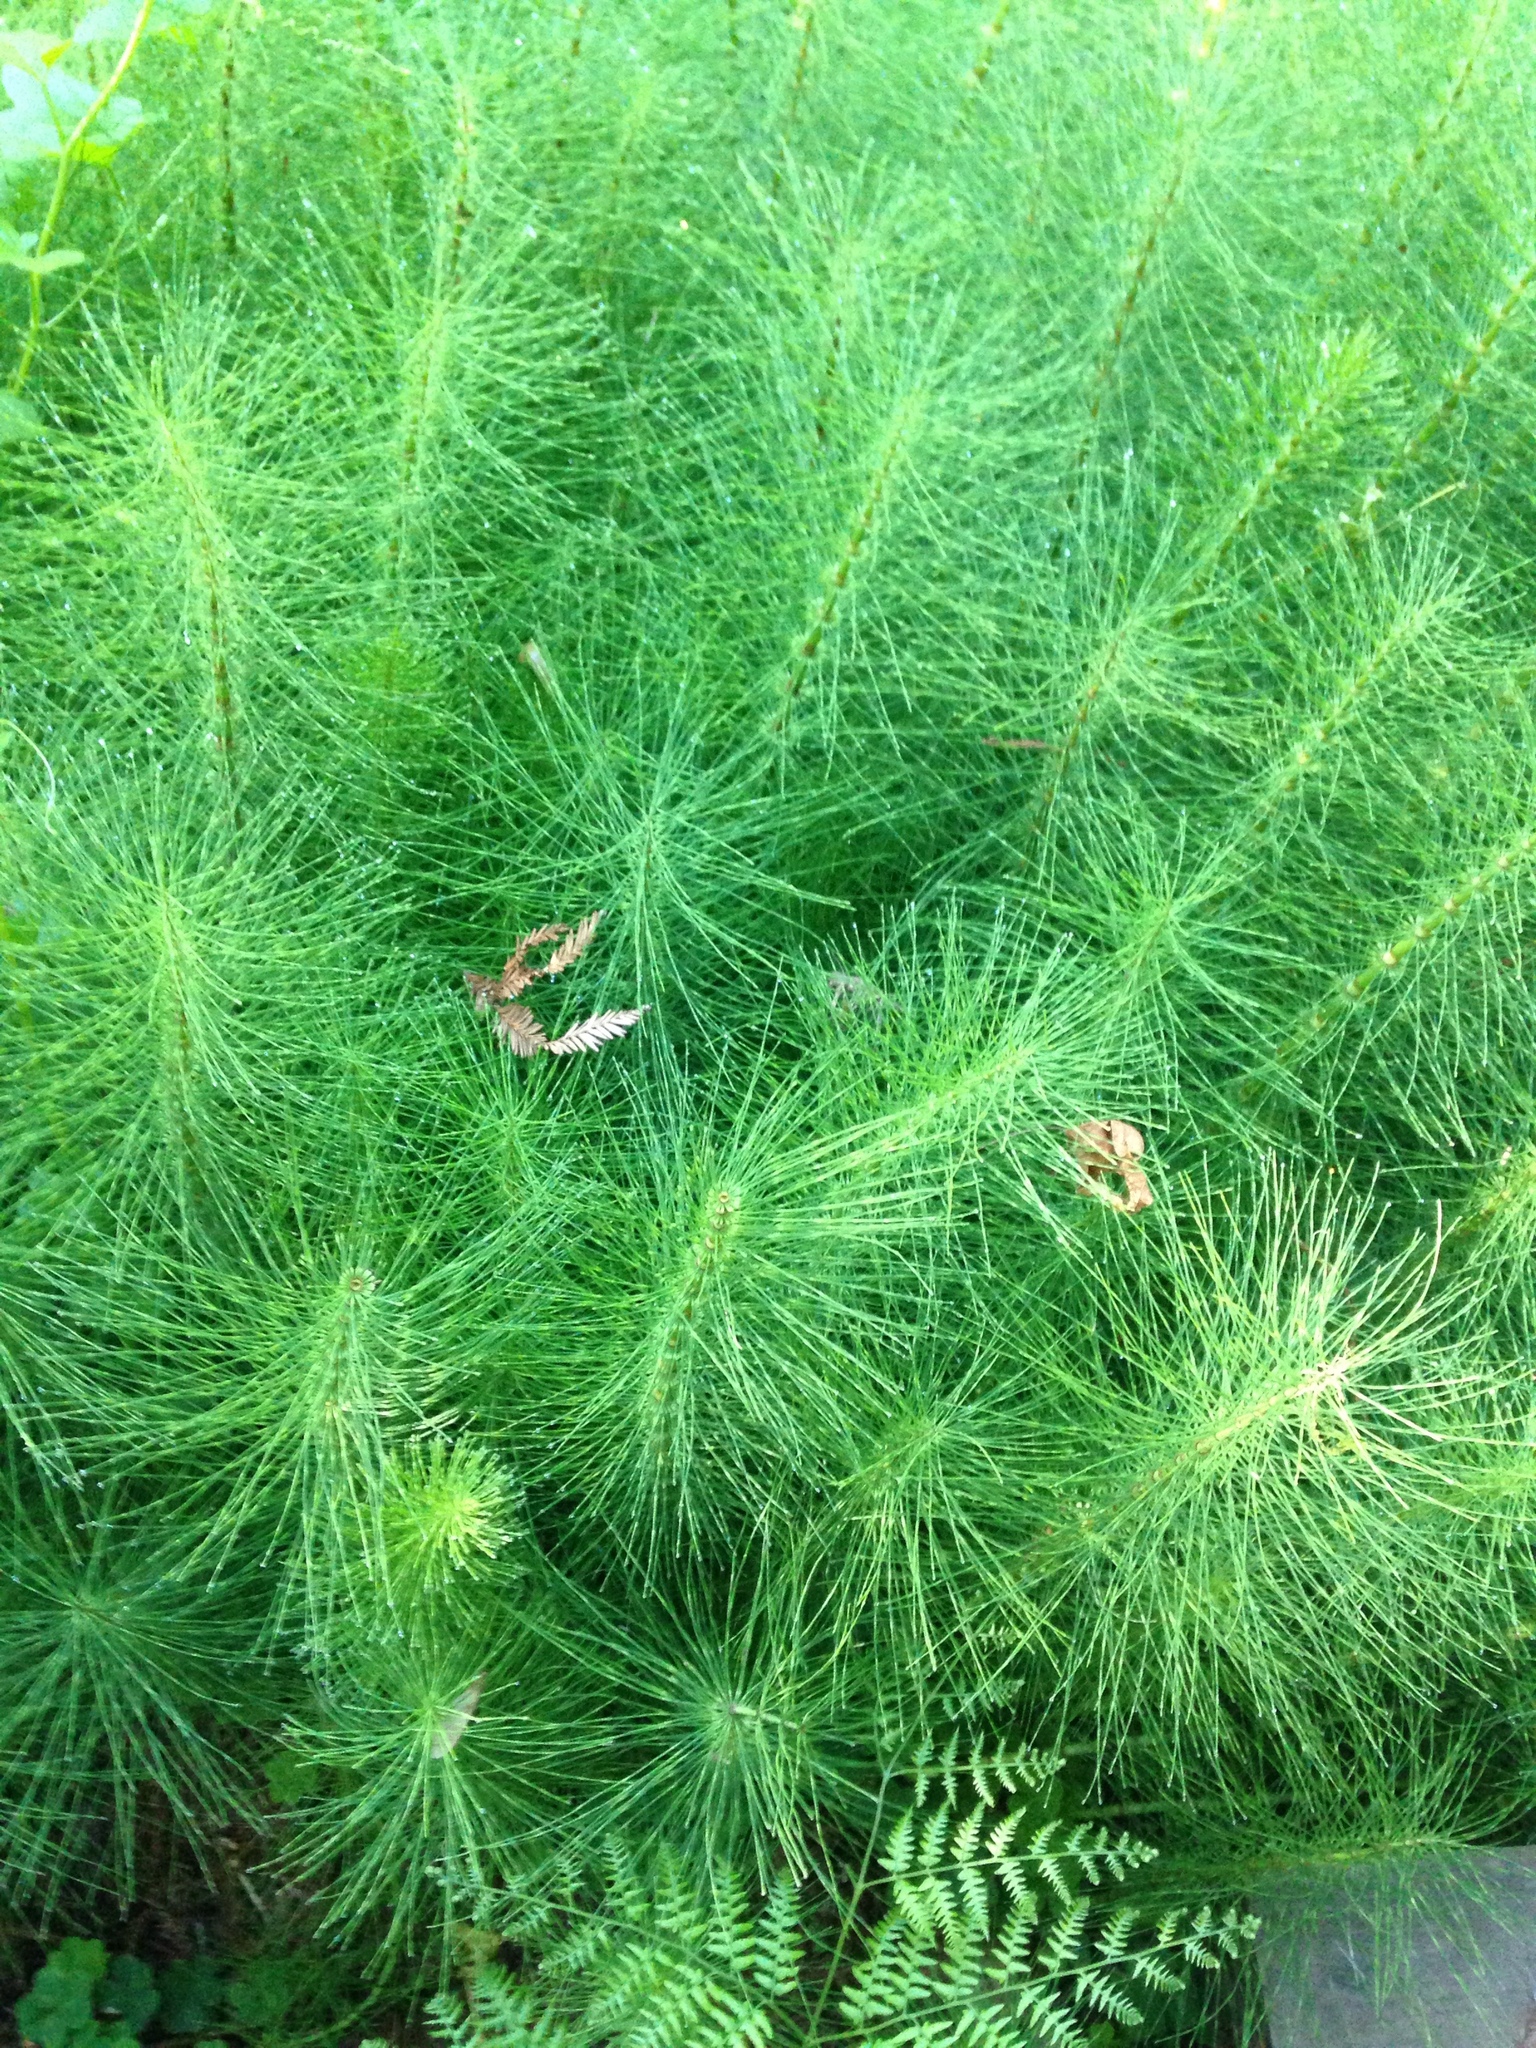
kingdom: Plantae
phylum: Tracheophyta
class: Polypodiopsida
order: Equisetales
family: Equisetaceae
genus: Equisetum
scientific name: Equisetum telmateia
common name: Great horsetail
